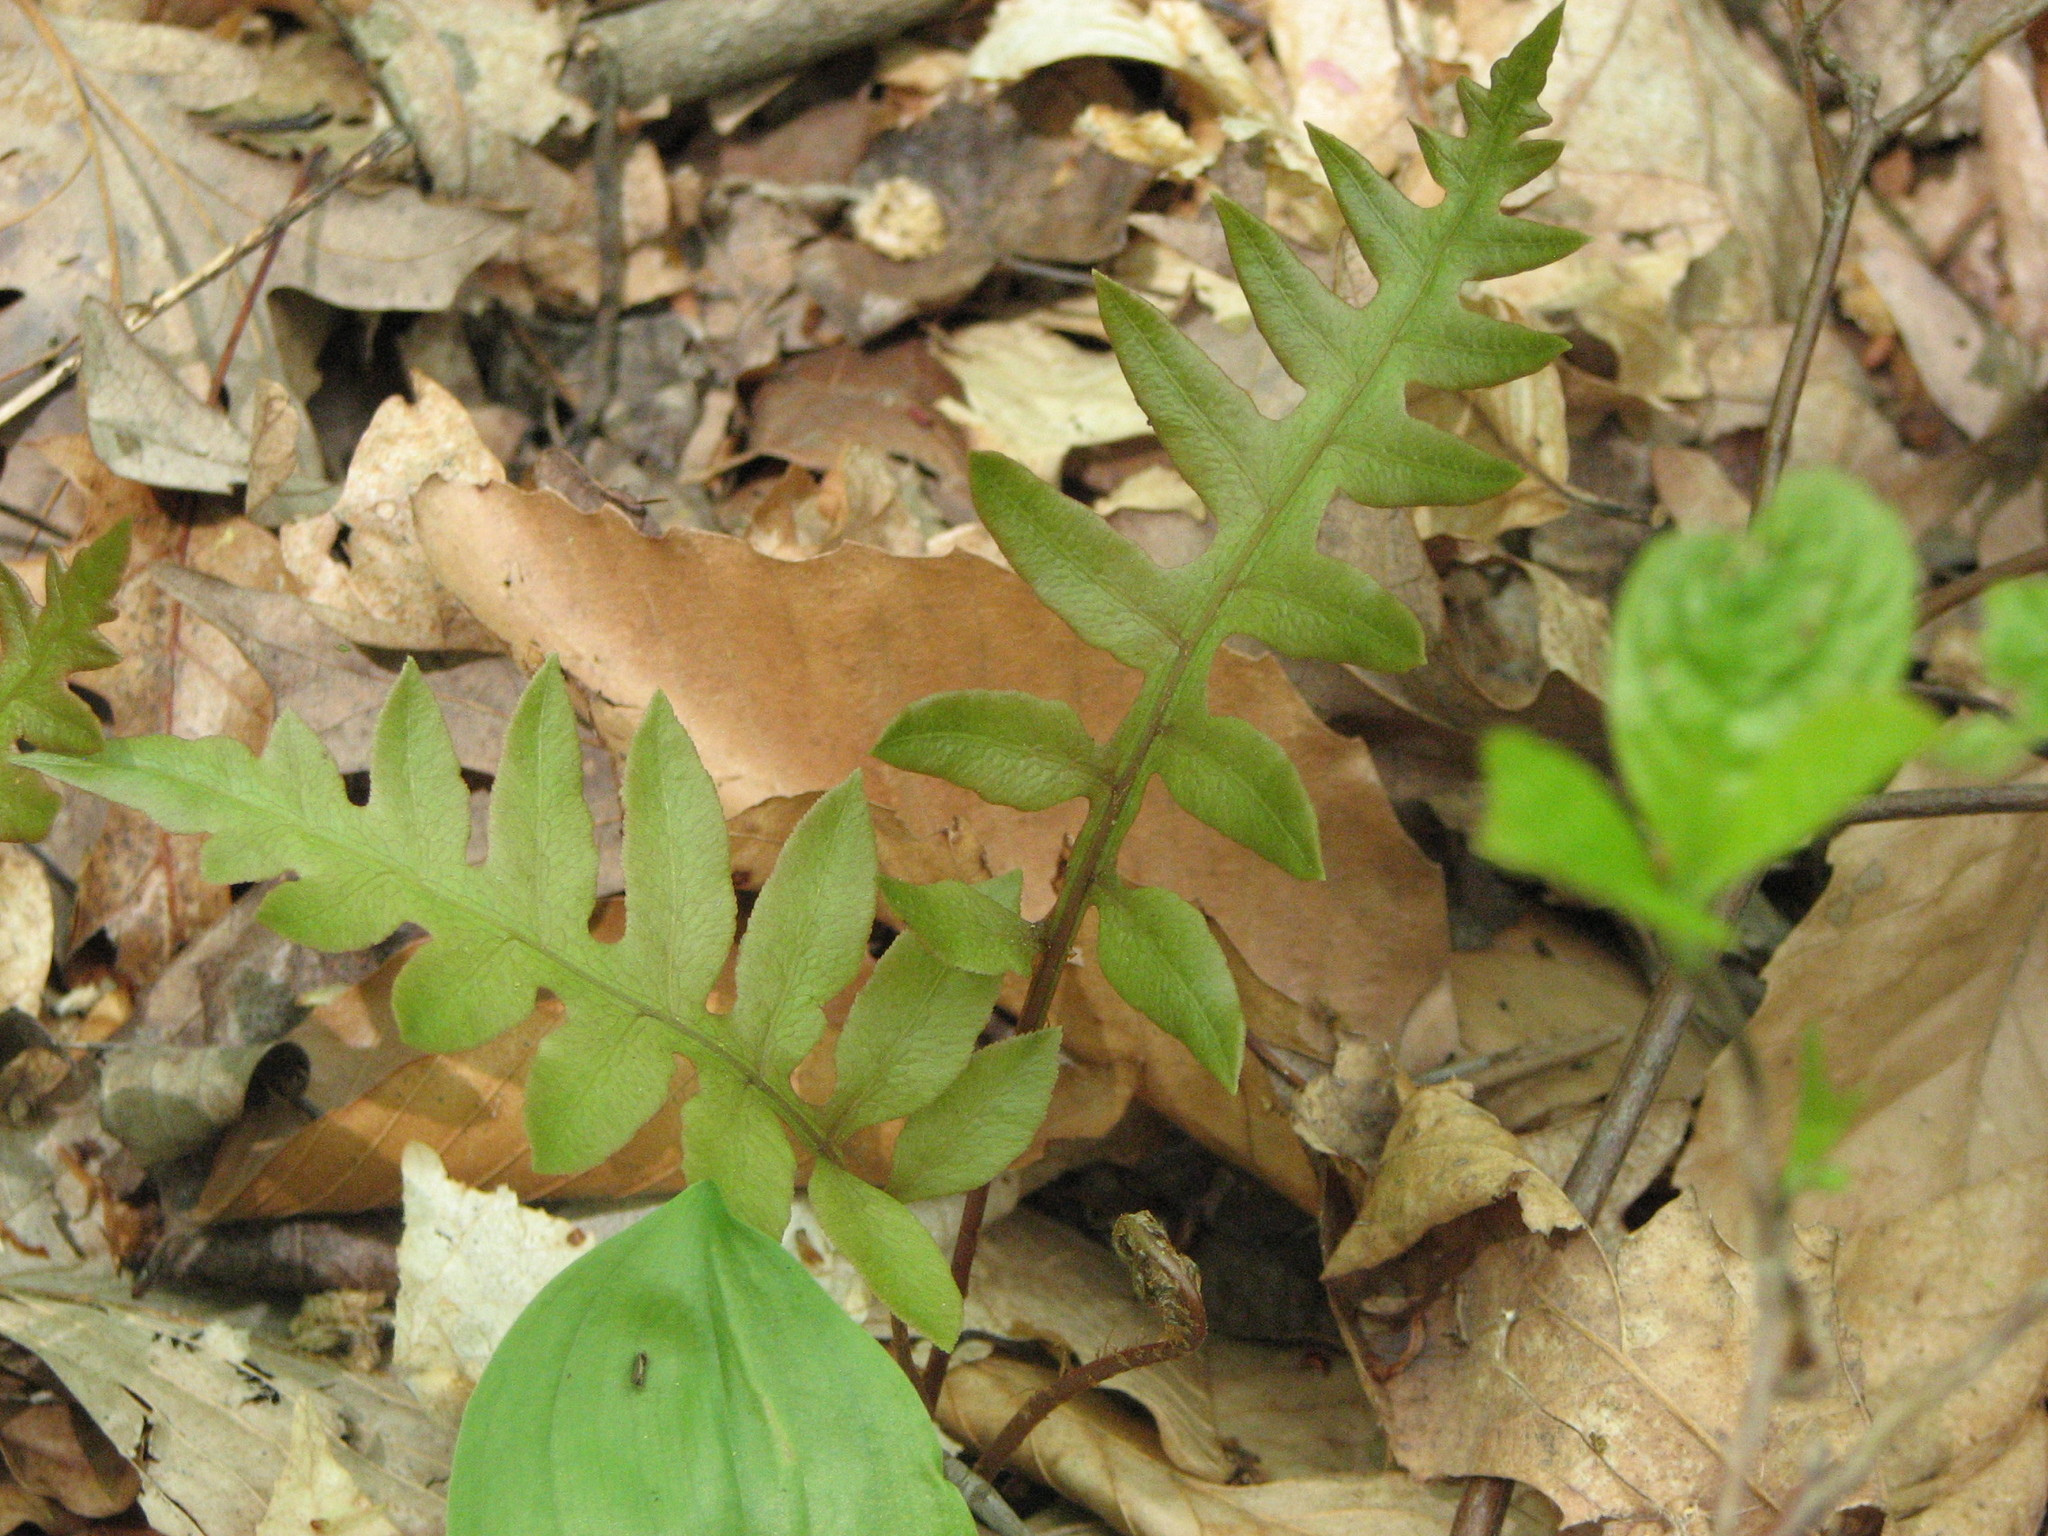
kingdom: Plantae
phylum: Tracheophyta
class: Polypodiopsida
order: Polypodiales
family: Blechnaceae
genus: Lorinseria
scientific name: Lorinseria areolata
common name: Dwarf chain fern
